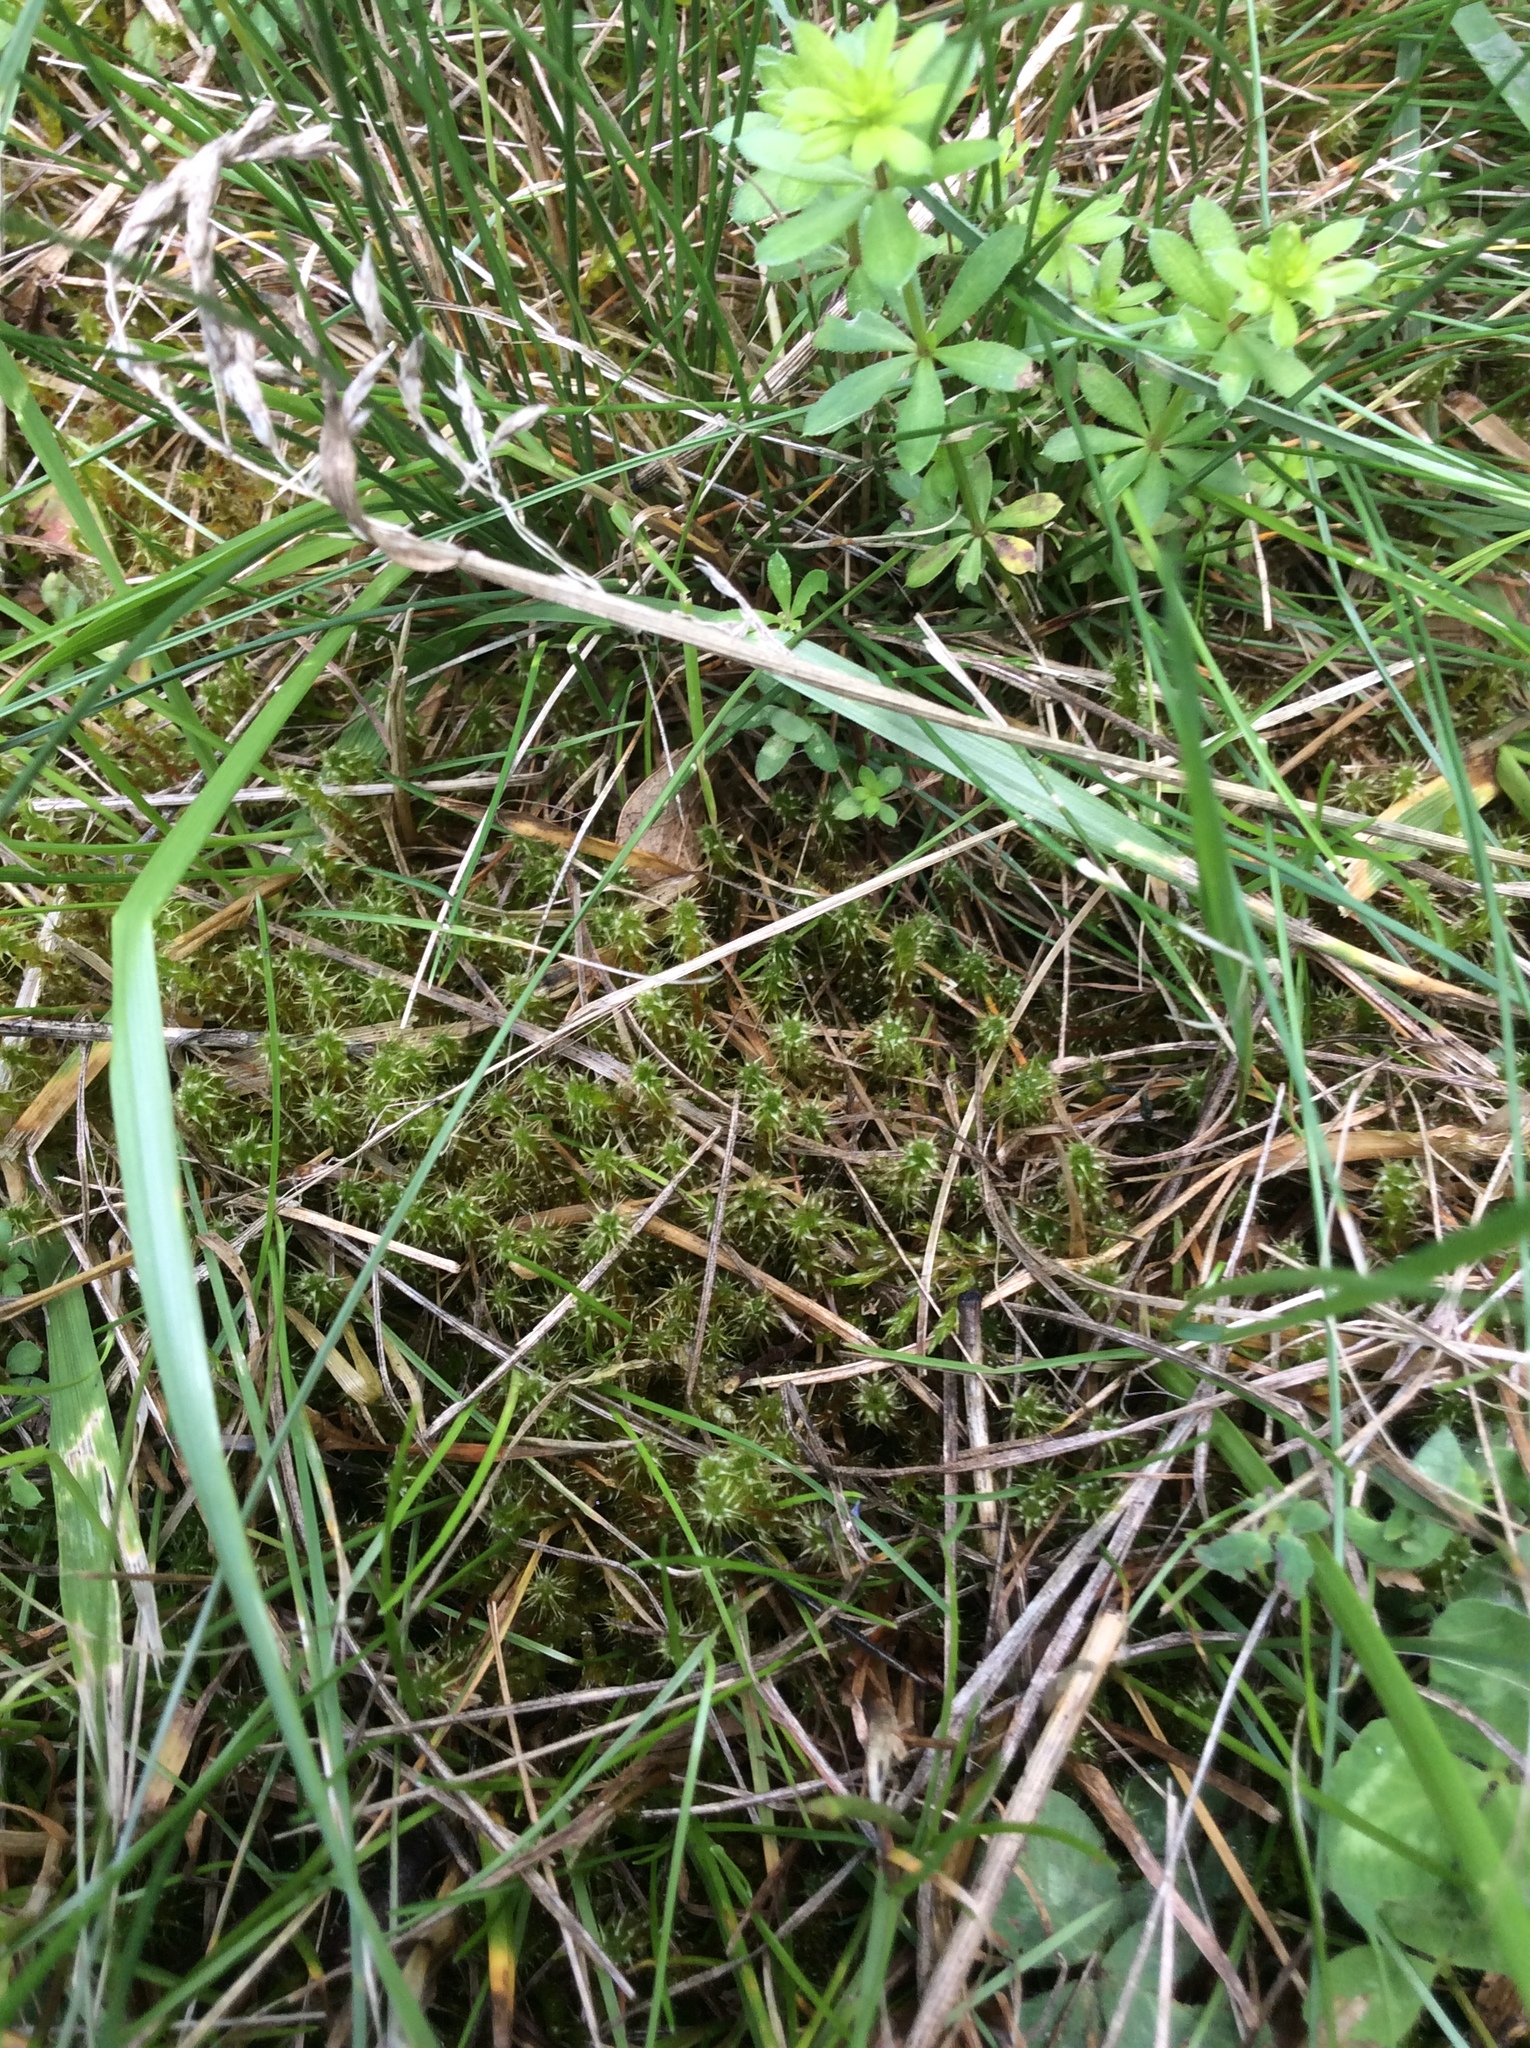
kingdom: Plantae
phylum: Bryophyta
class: Bryopsida
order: Hypnales
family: Hylocomiaceae
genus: Rhytidiadelphus
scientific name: Rhytidiadelphus squarrosus
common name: Springy turf-moss
